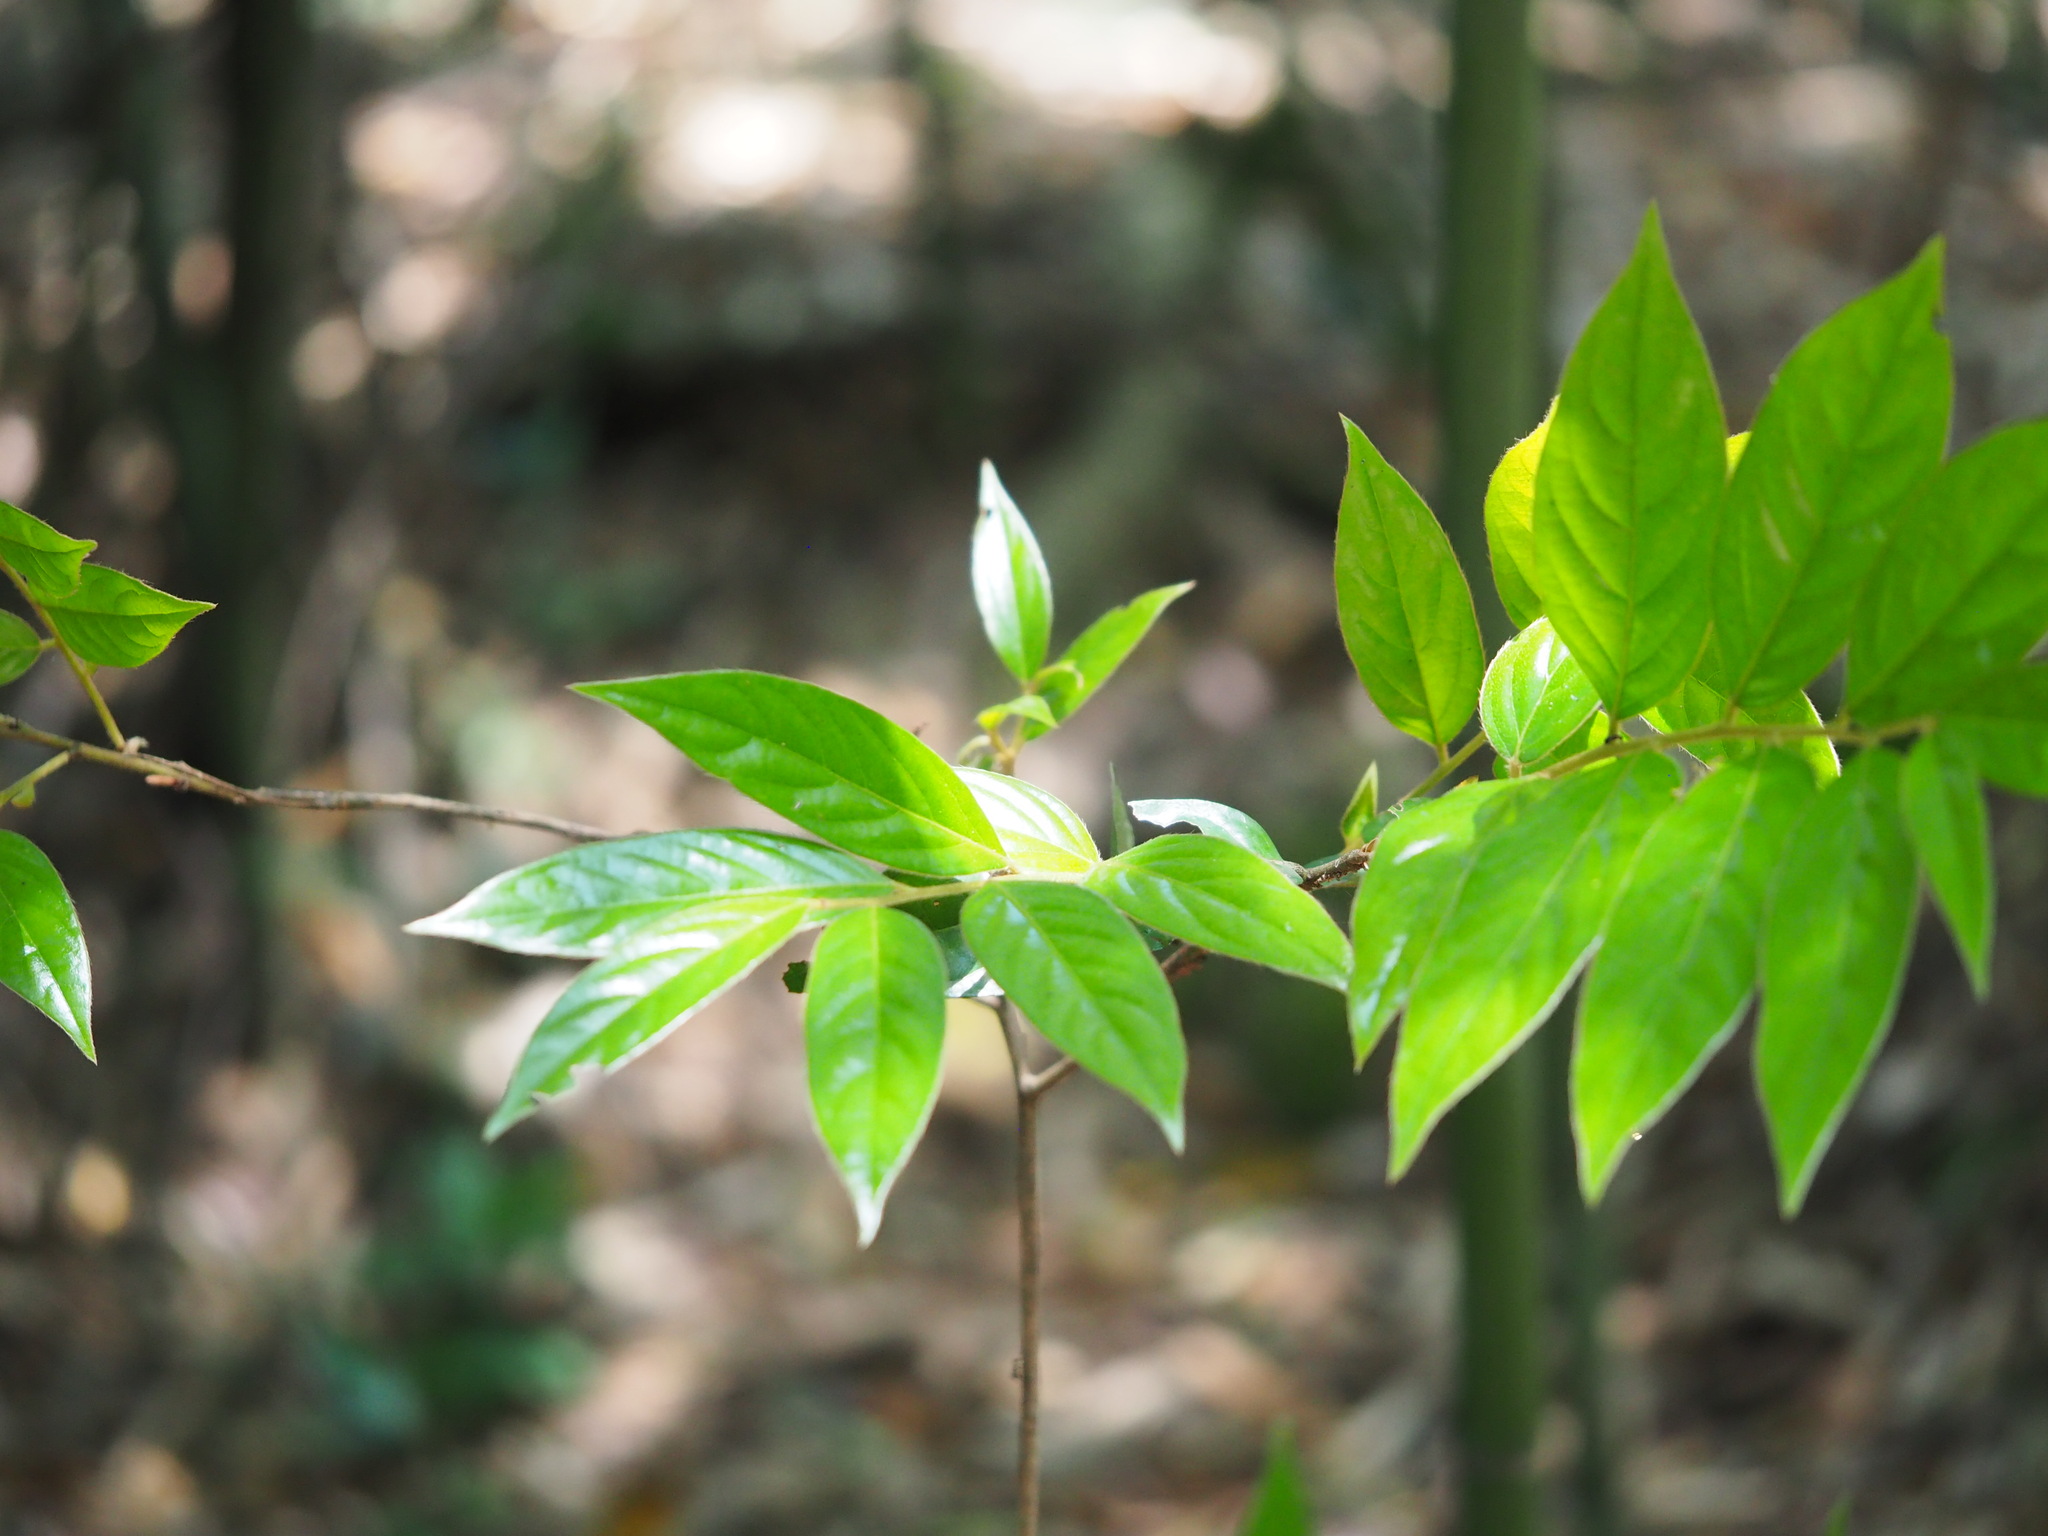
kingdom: Plantae
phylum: Tracheophyta
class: Magnoliopsida
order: Ericales
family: Ebenaceae
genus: Diospyros
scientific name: Diospyros eriantha
